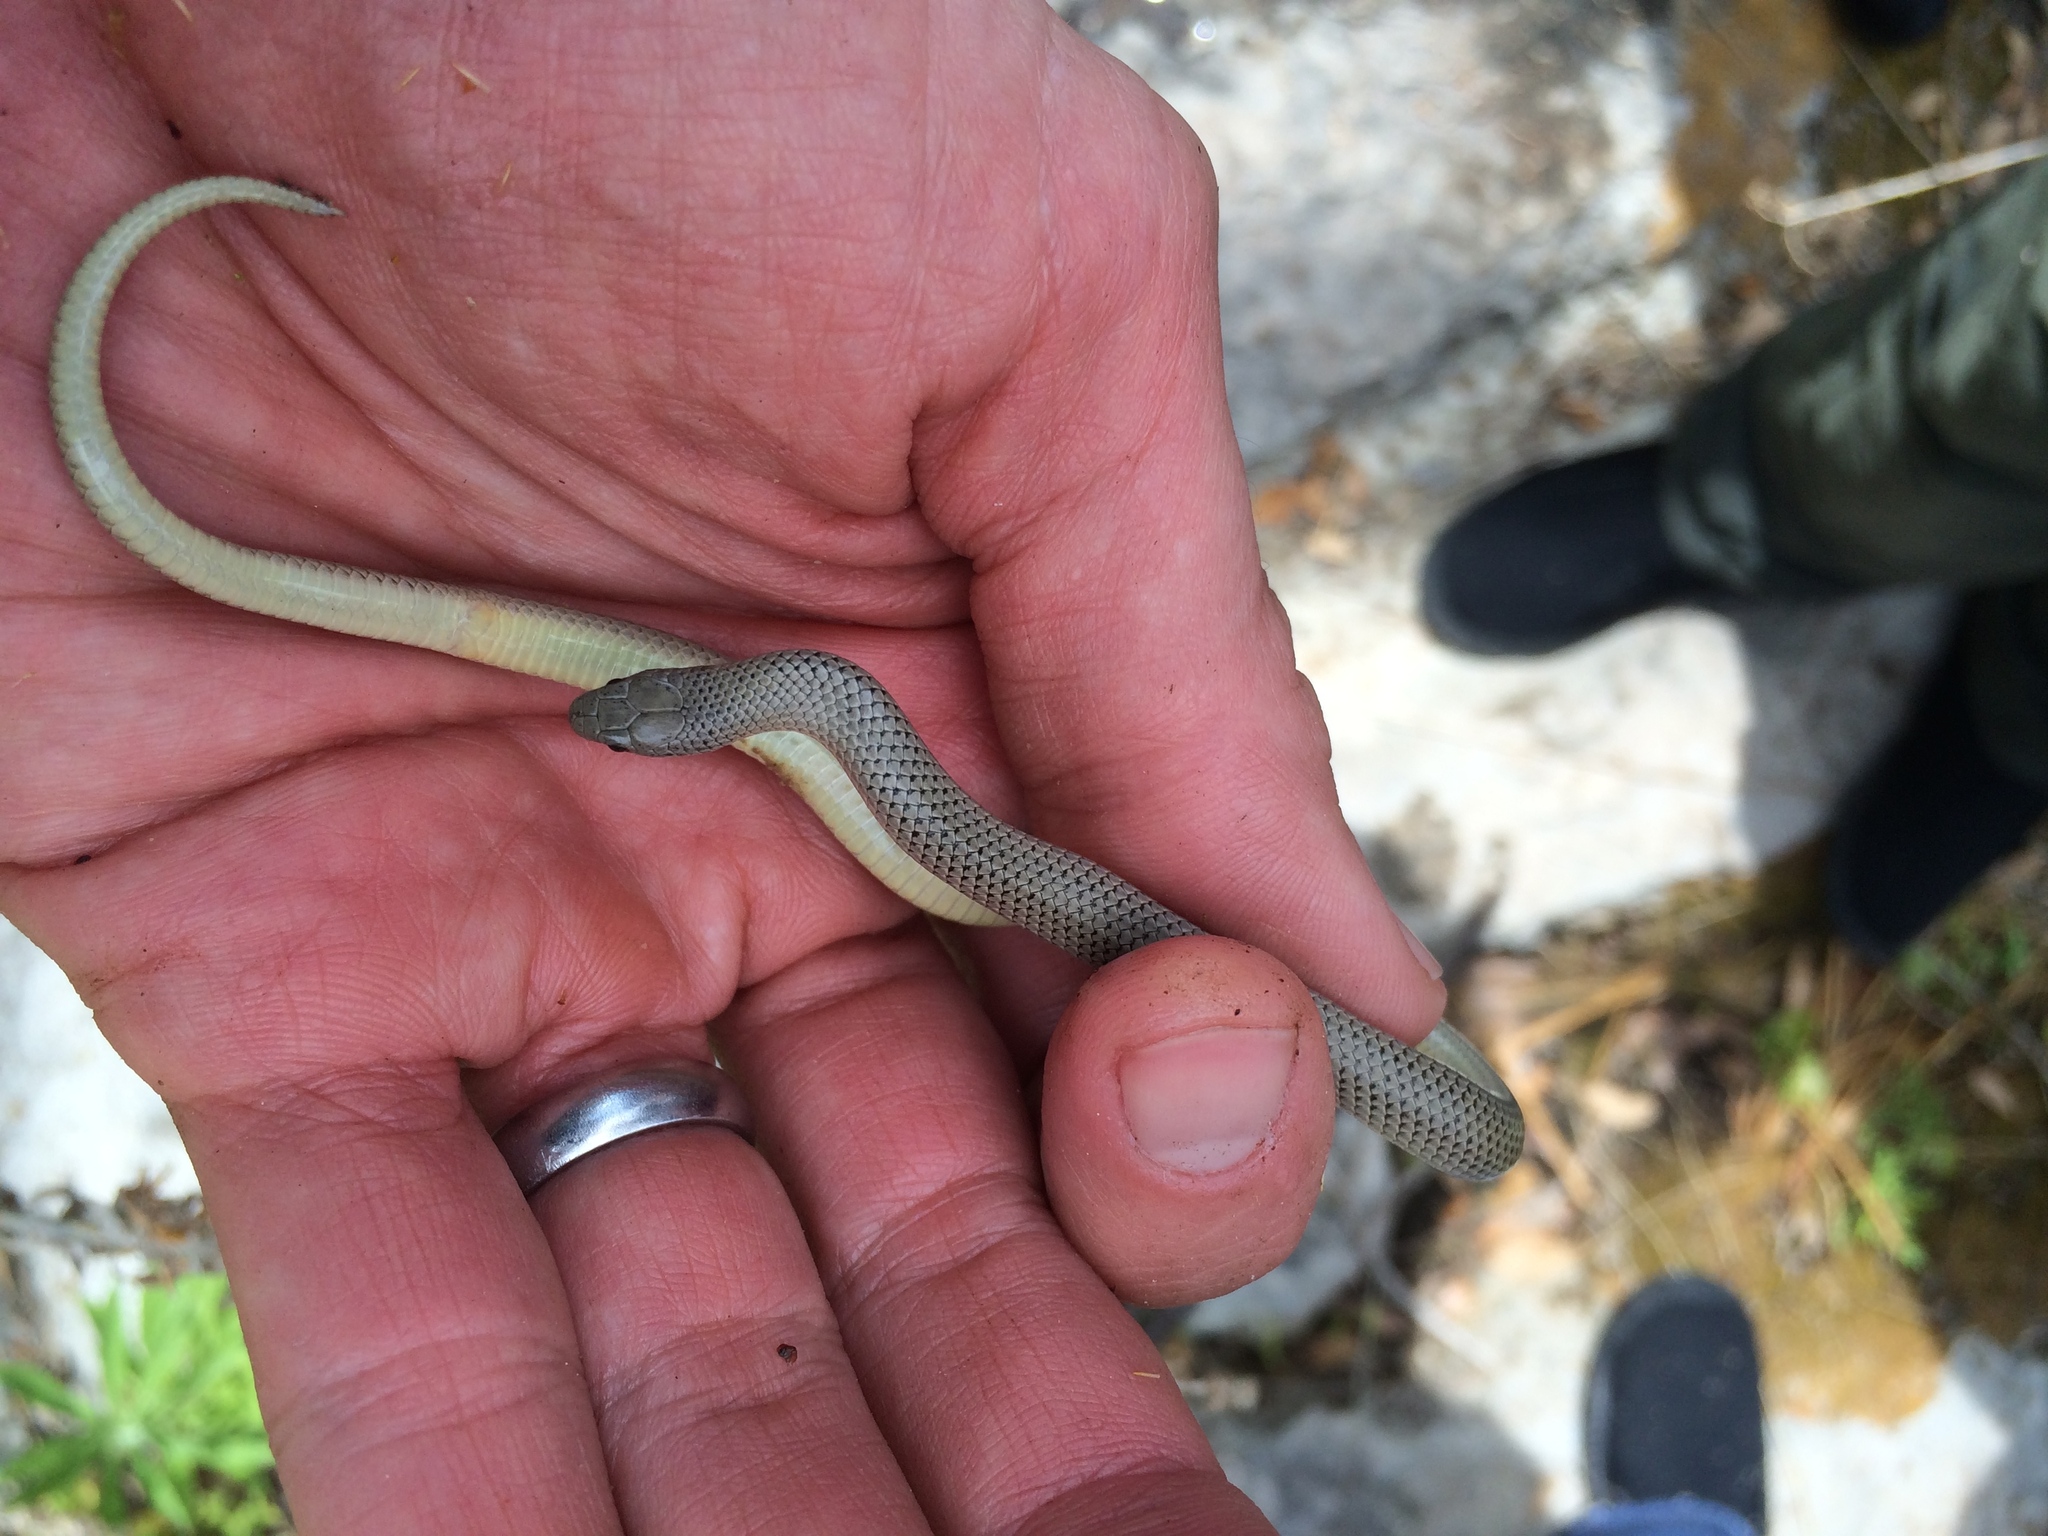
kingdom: Animalia
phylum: Chordata
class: Squamata
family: Colubridae
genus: Sonora
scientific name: Sonora episcopa
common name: Ground snake
